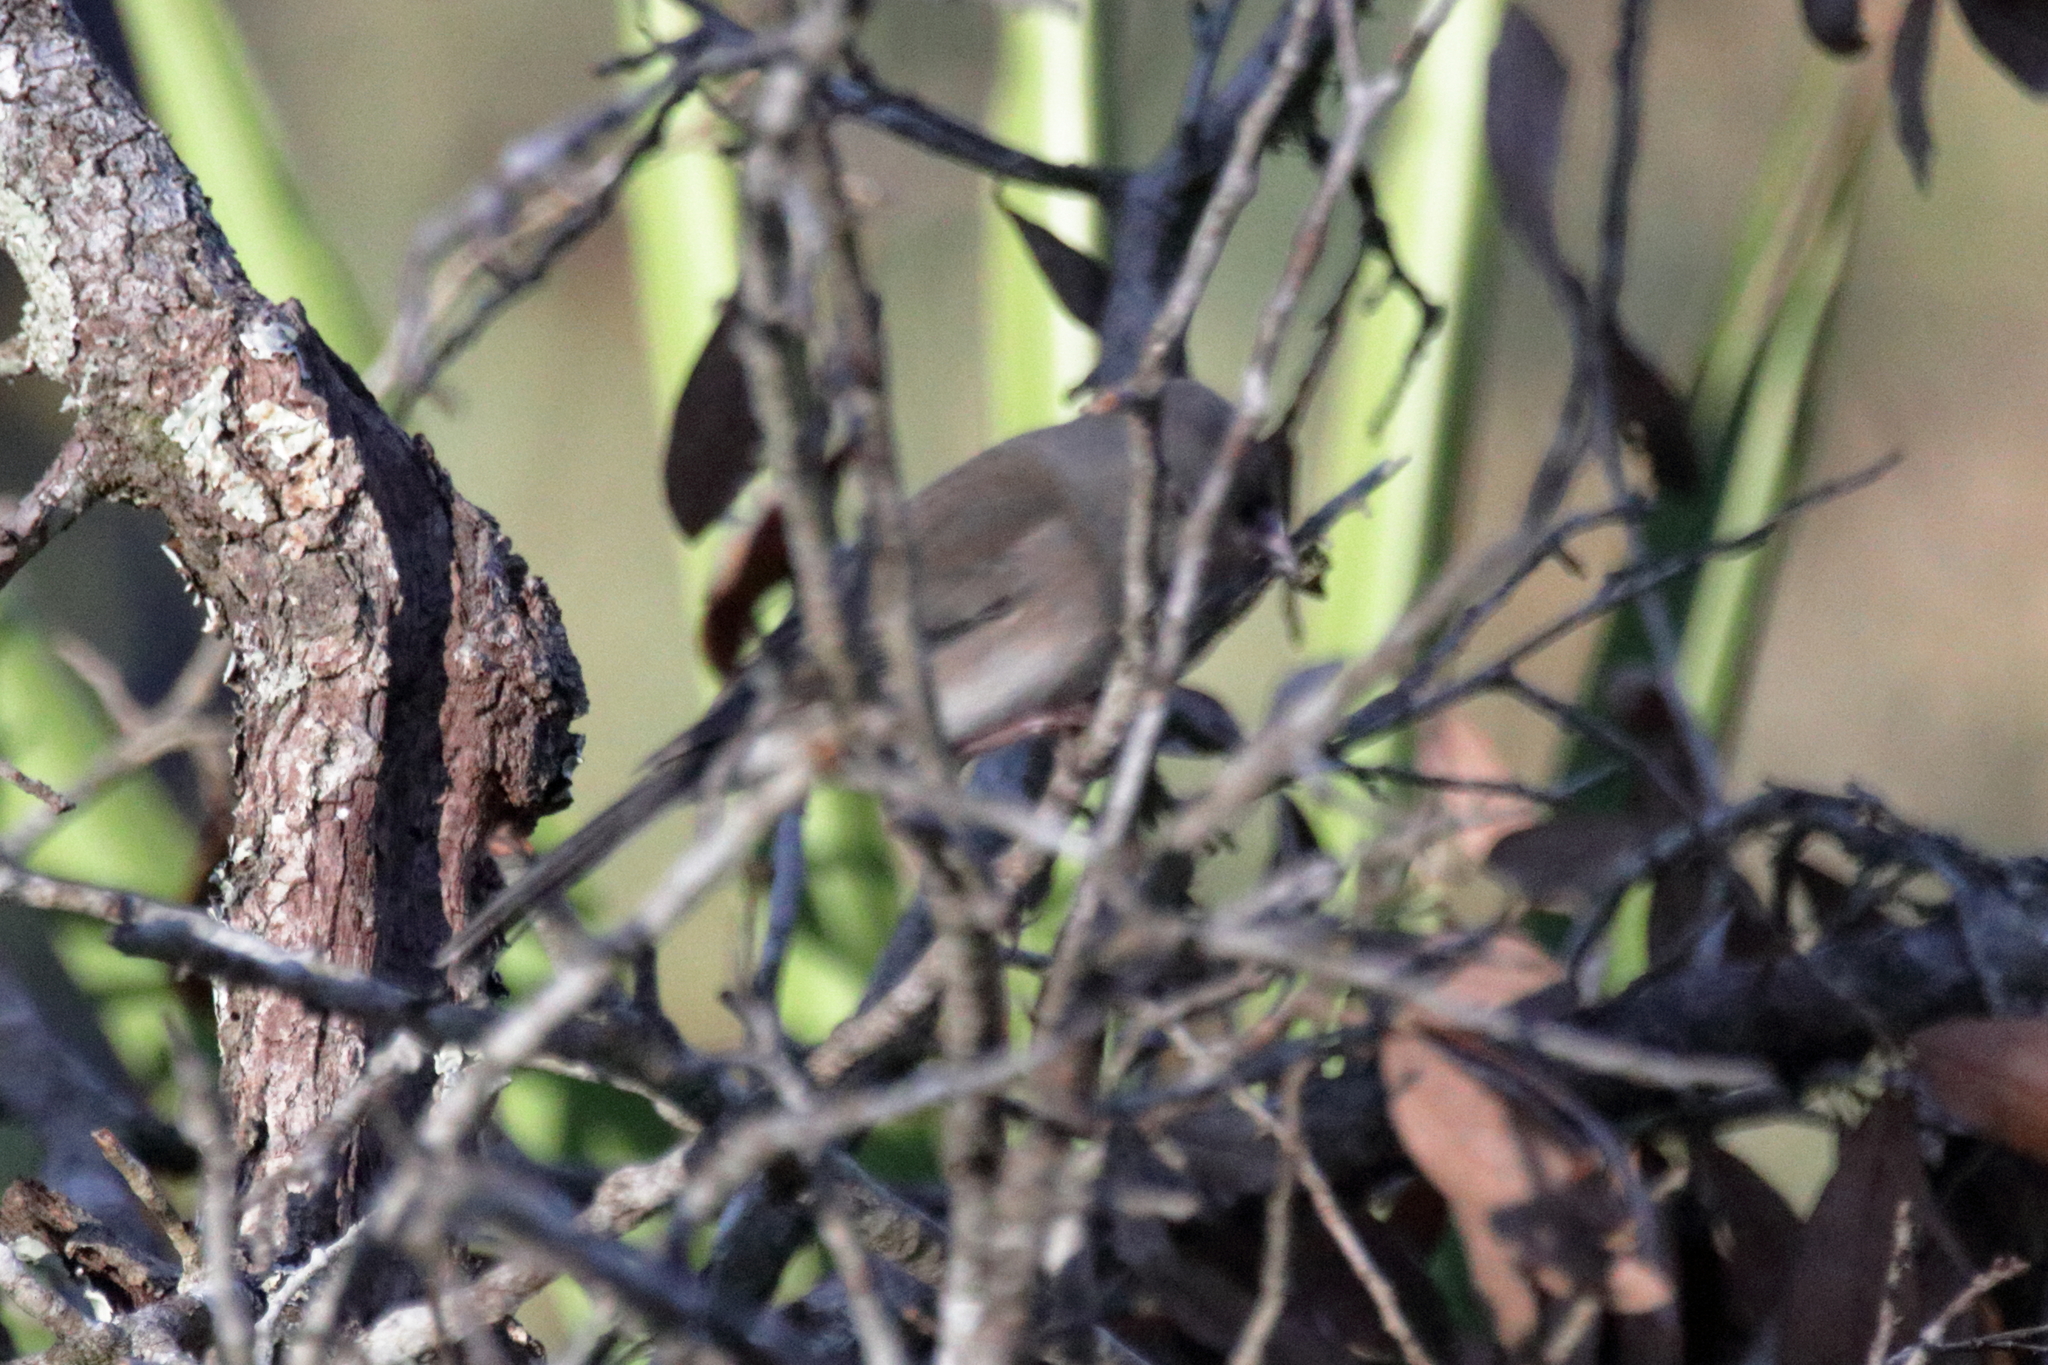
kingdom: Animalia
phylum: Chordata
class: Aves
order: Passeriformes
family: Passerellidae
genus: Junco
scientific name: Junco hyemalis
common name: Dark-eyed junco
